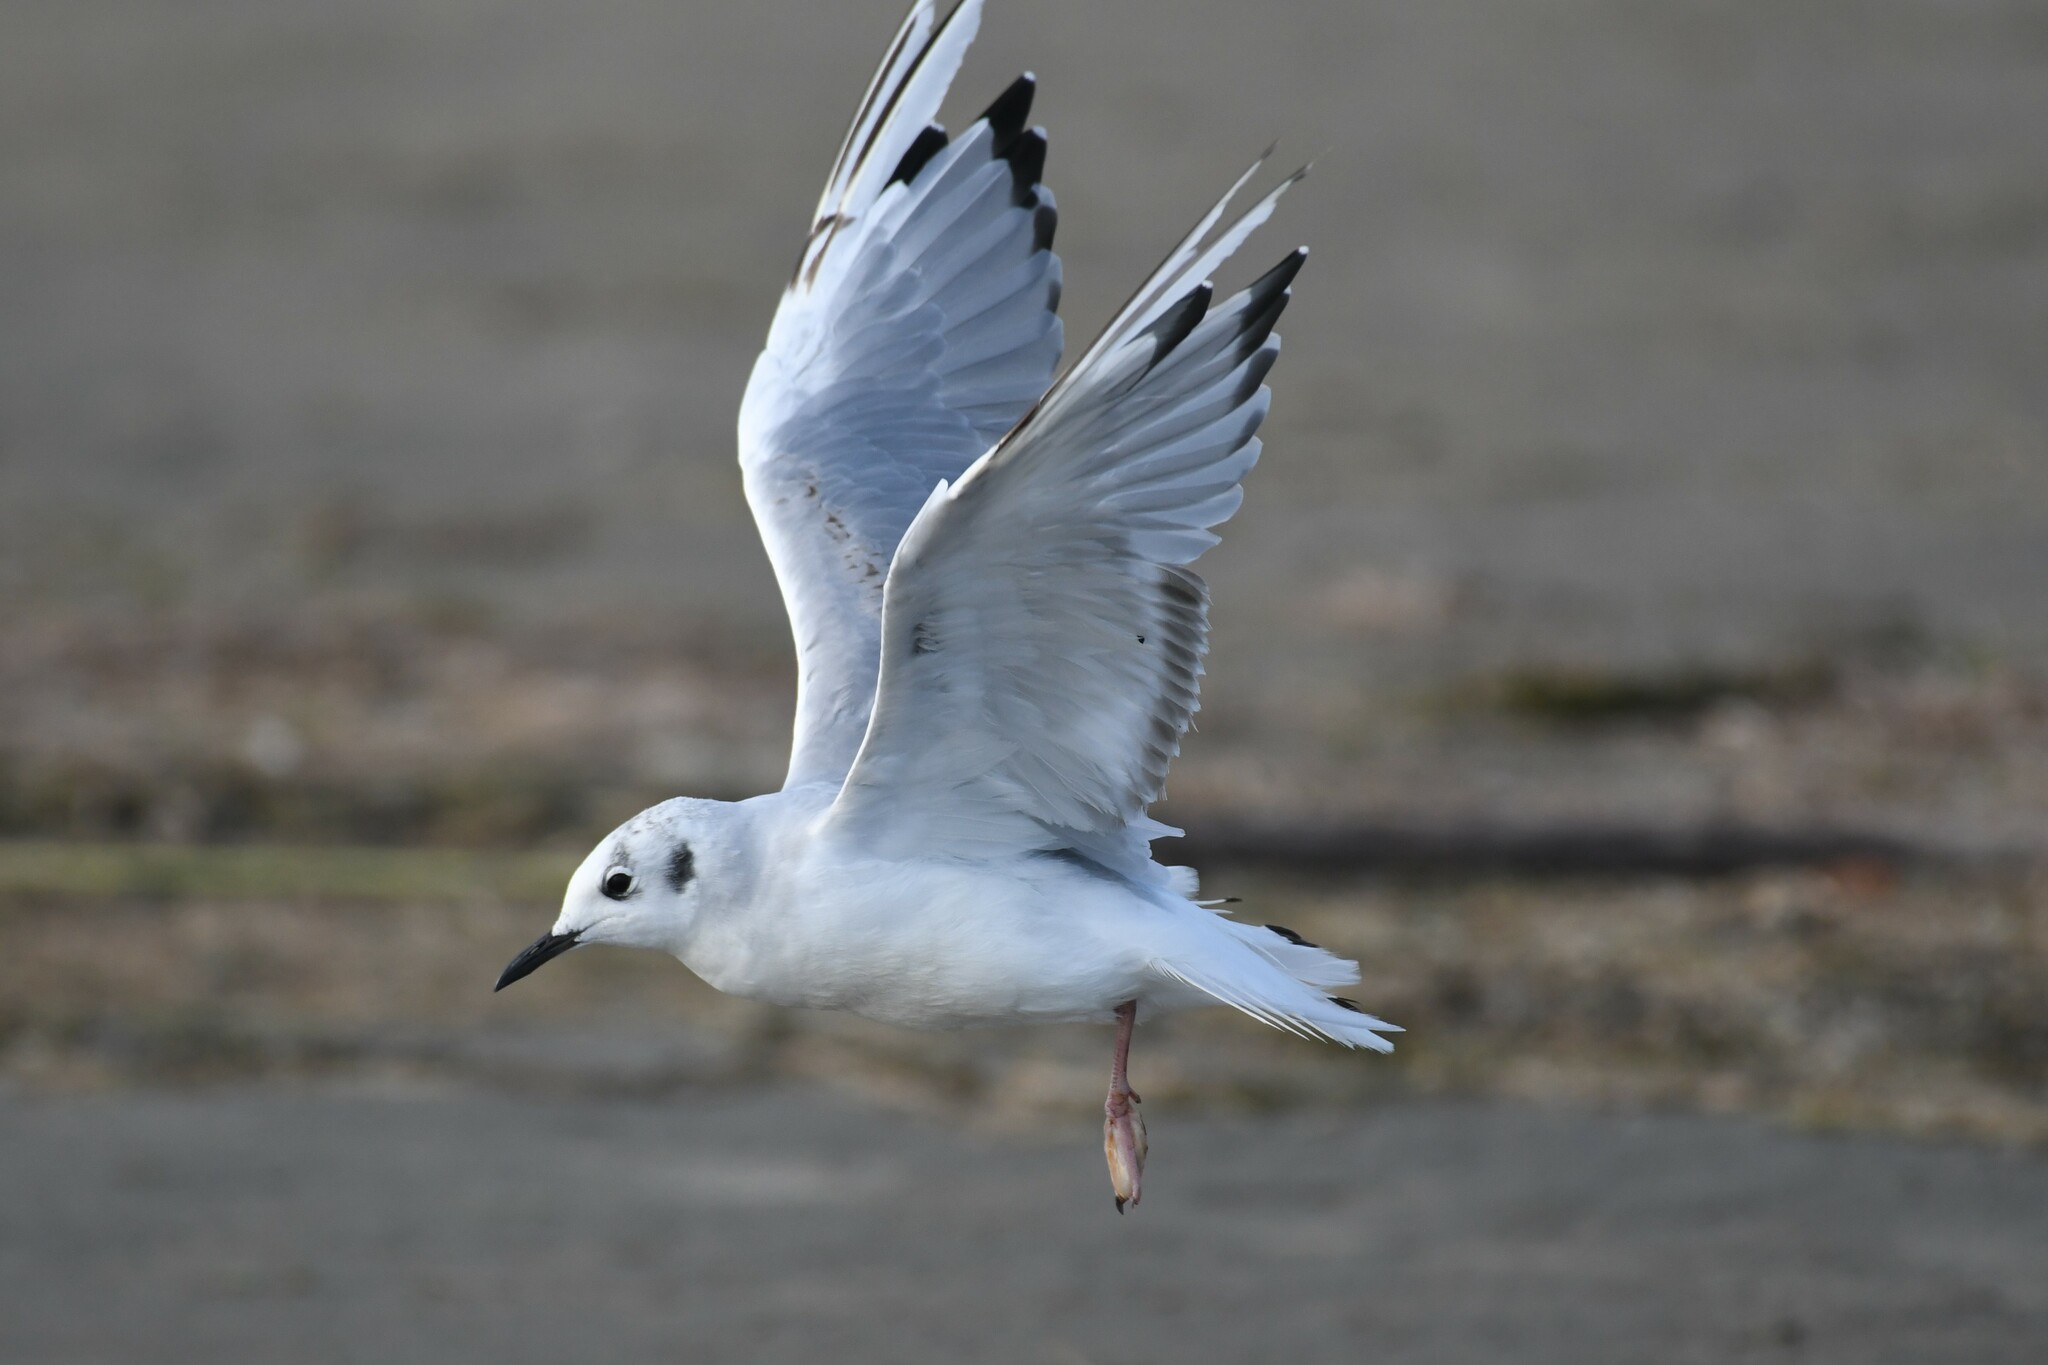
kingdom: Animalia
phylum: Chordata
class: Aves
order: Charadriiformes
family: Laridae
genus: Chroicocephalus
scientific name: Chroicocephalus philadelphia
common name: Bonaparte's gull
